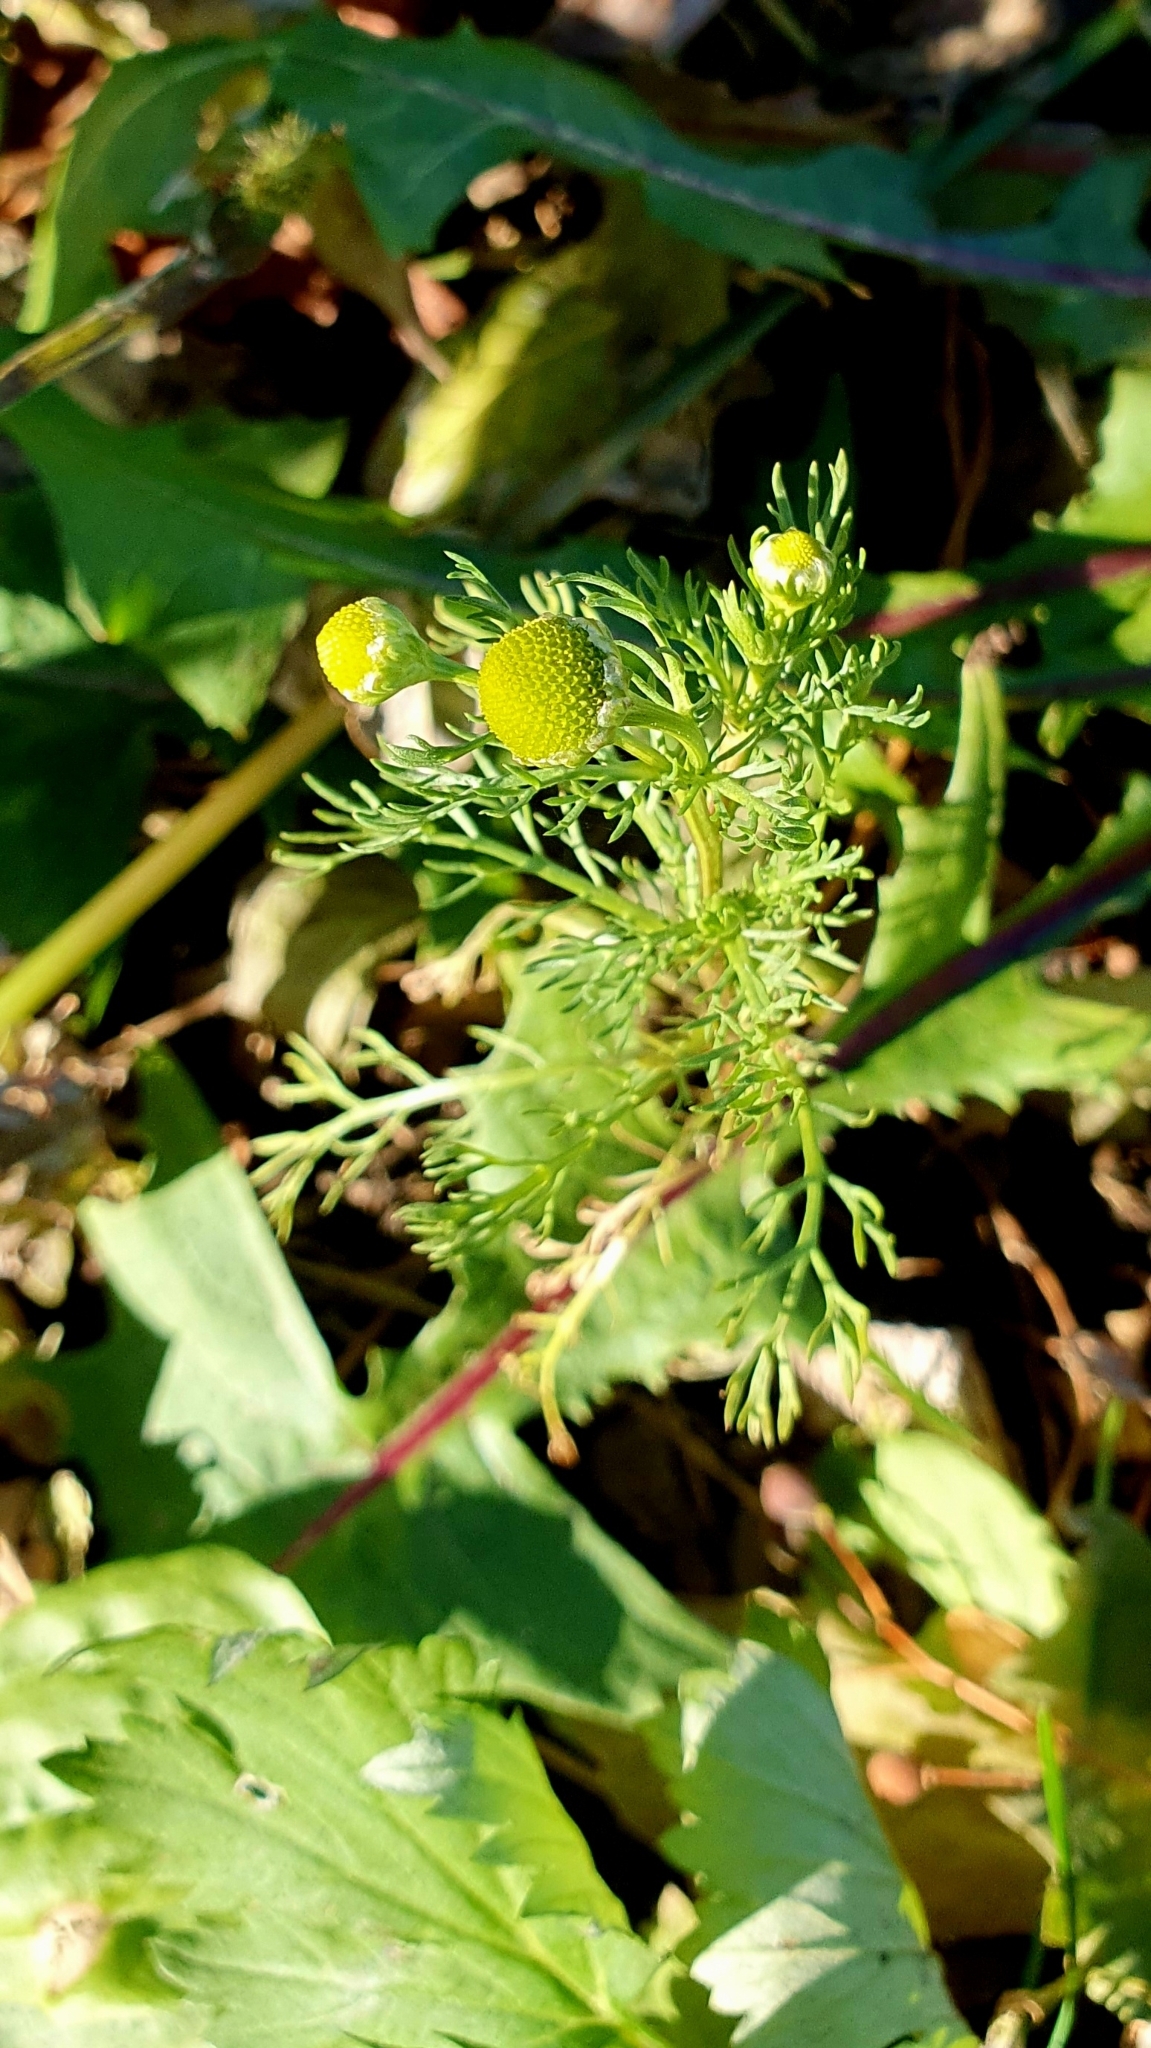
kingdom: Plantae
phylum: Tracheophyta
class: Magnoliopsida
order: Asterales
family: Asteraceae
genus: Matricaria
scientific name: Matricaria discoidea
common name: Disc mayweed
